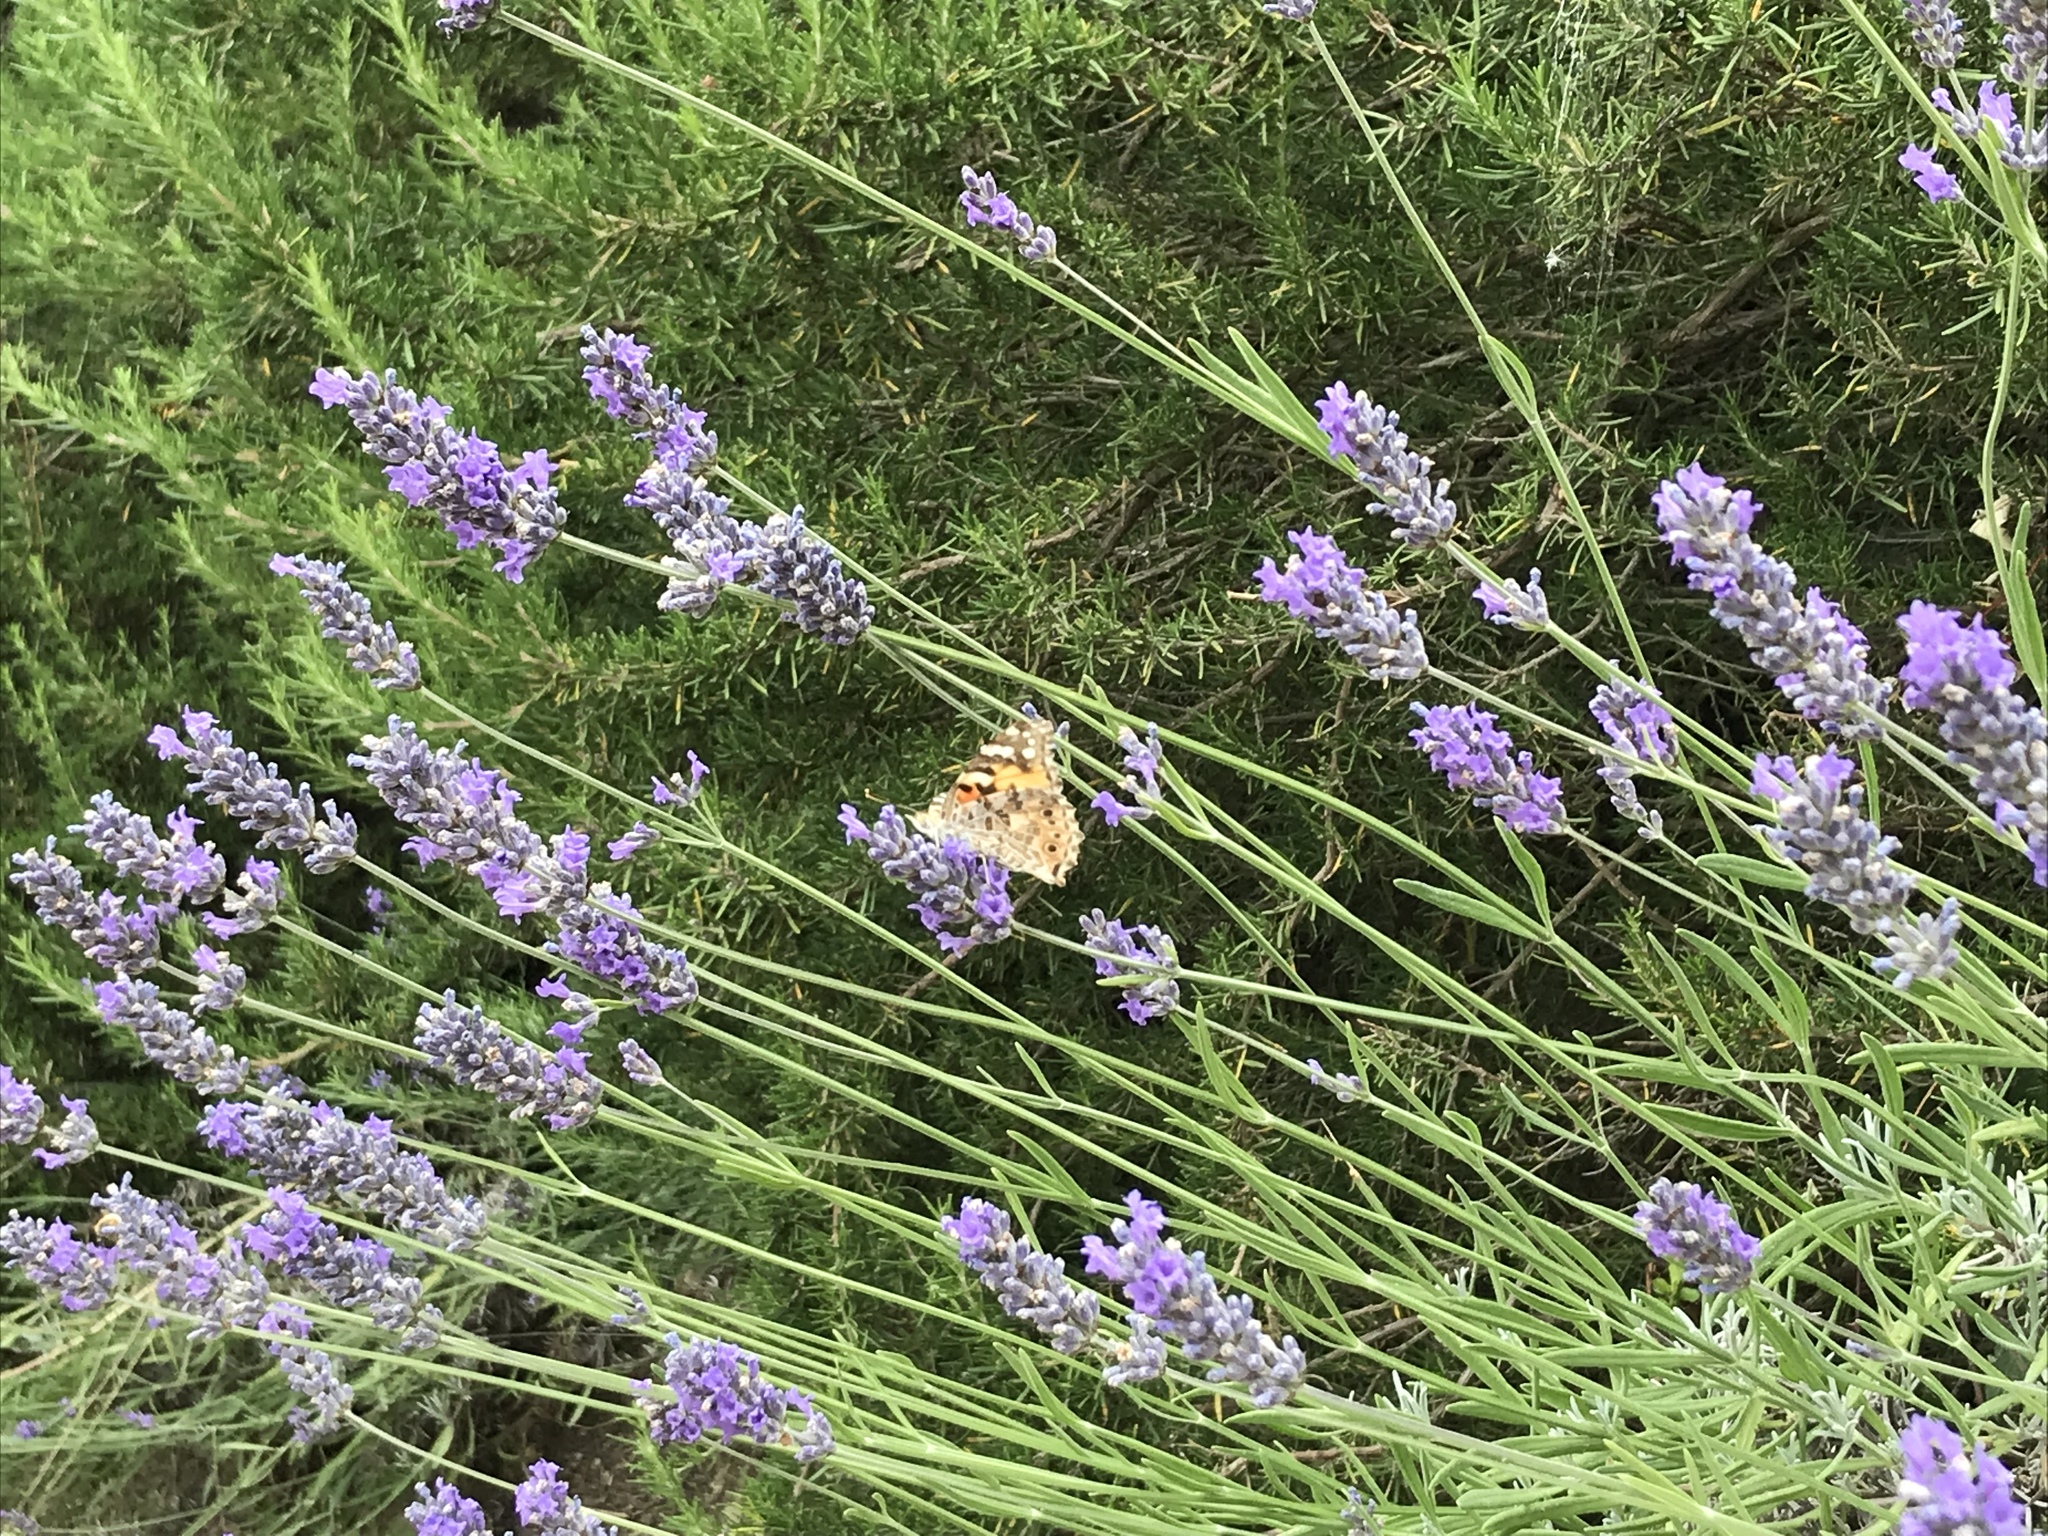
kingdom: Animalia
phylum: Arthropoda
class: Insecta
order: Lepidoptera
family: Nymphalidae
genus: Vanessa
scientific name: Vanessa cardui
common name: Painted lady
